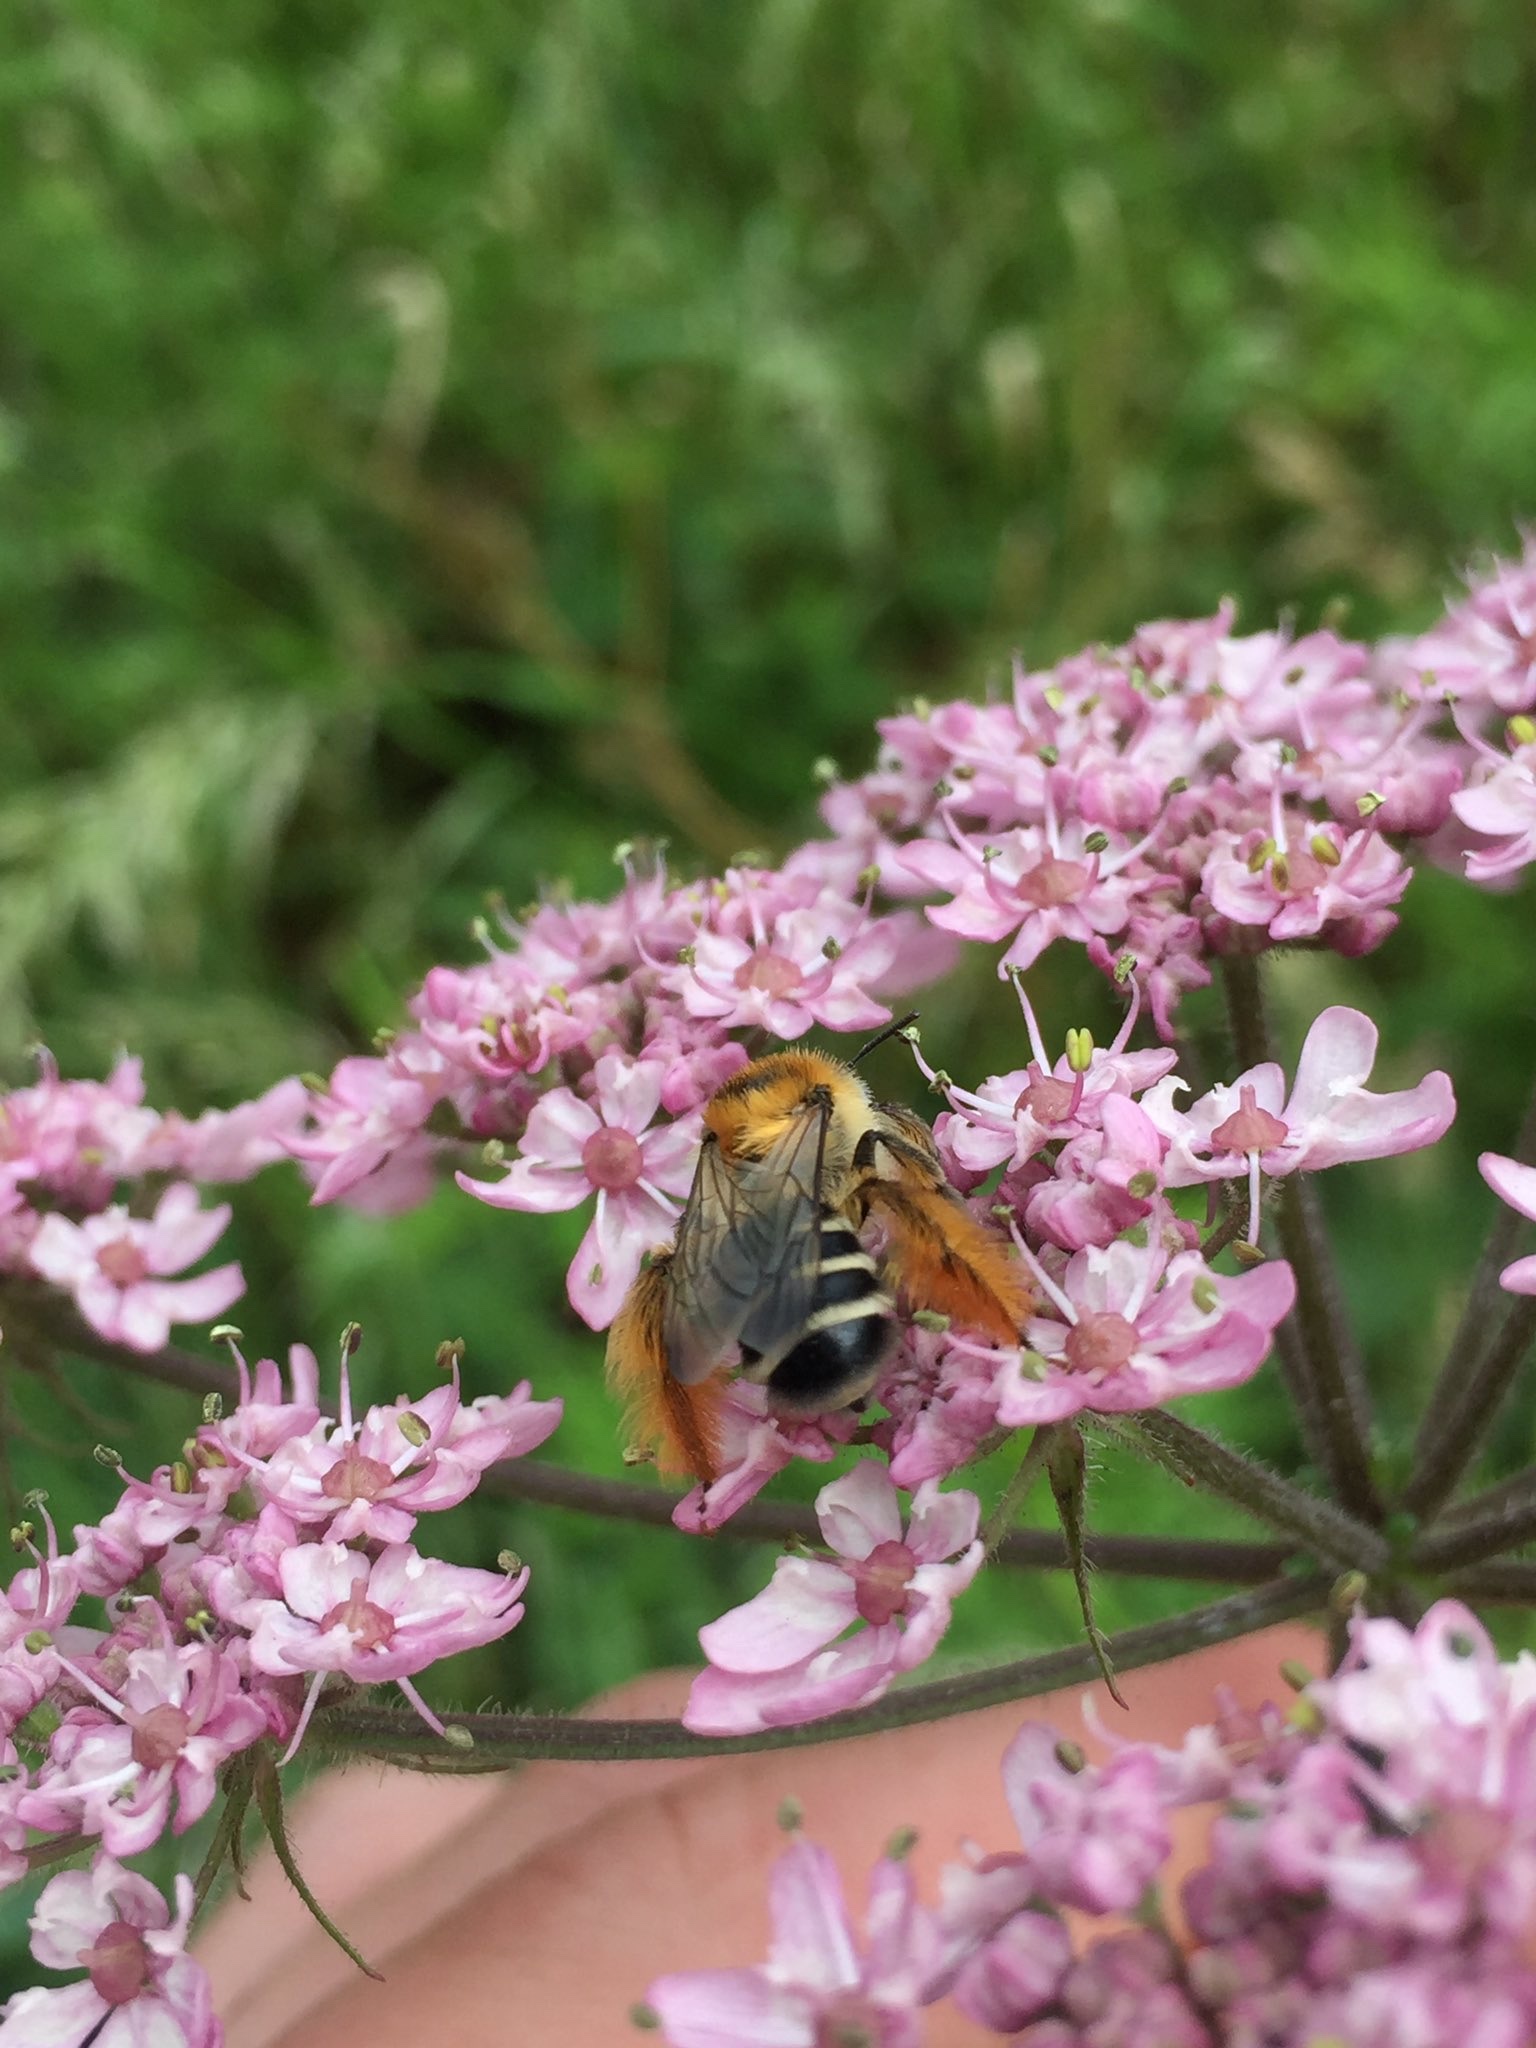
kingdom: Animalia
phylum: Arthropoda
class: Insecta
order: Hymenoptera
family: Melittidae
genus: Dasypoda
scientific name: Dasypoda hirtipes
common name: Pantaloon bee
